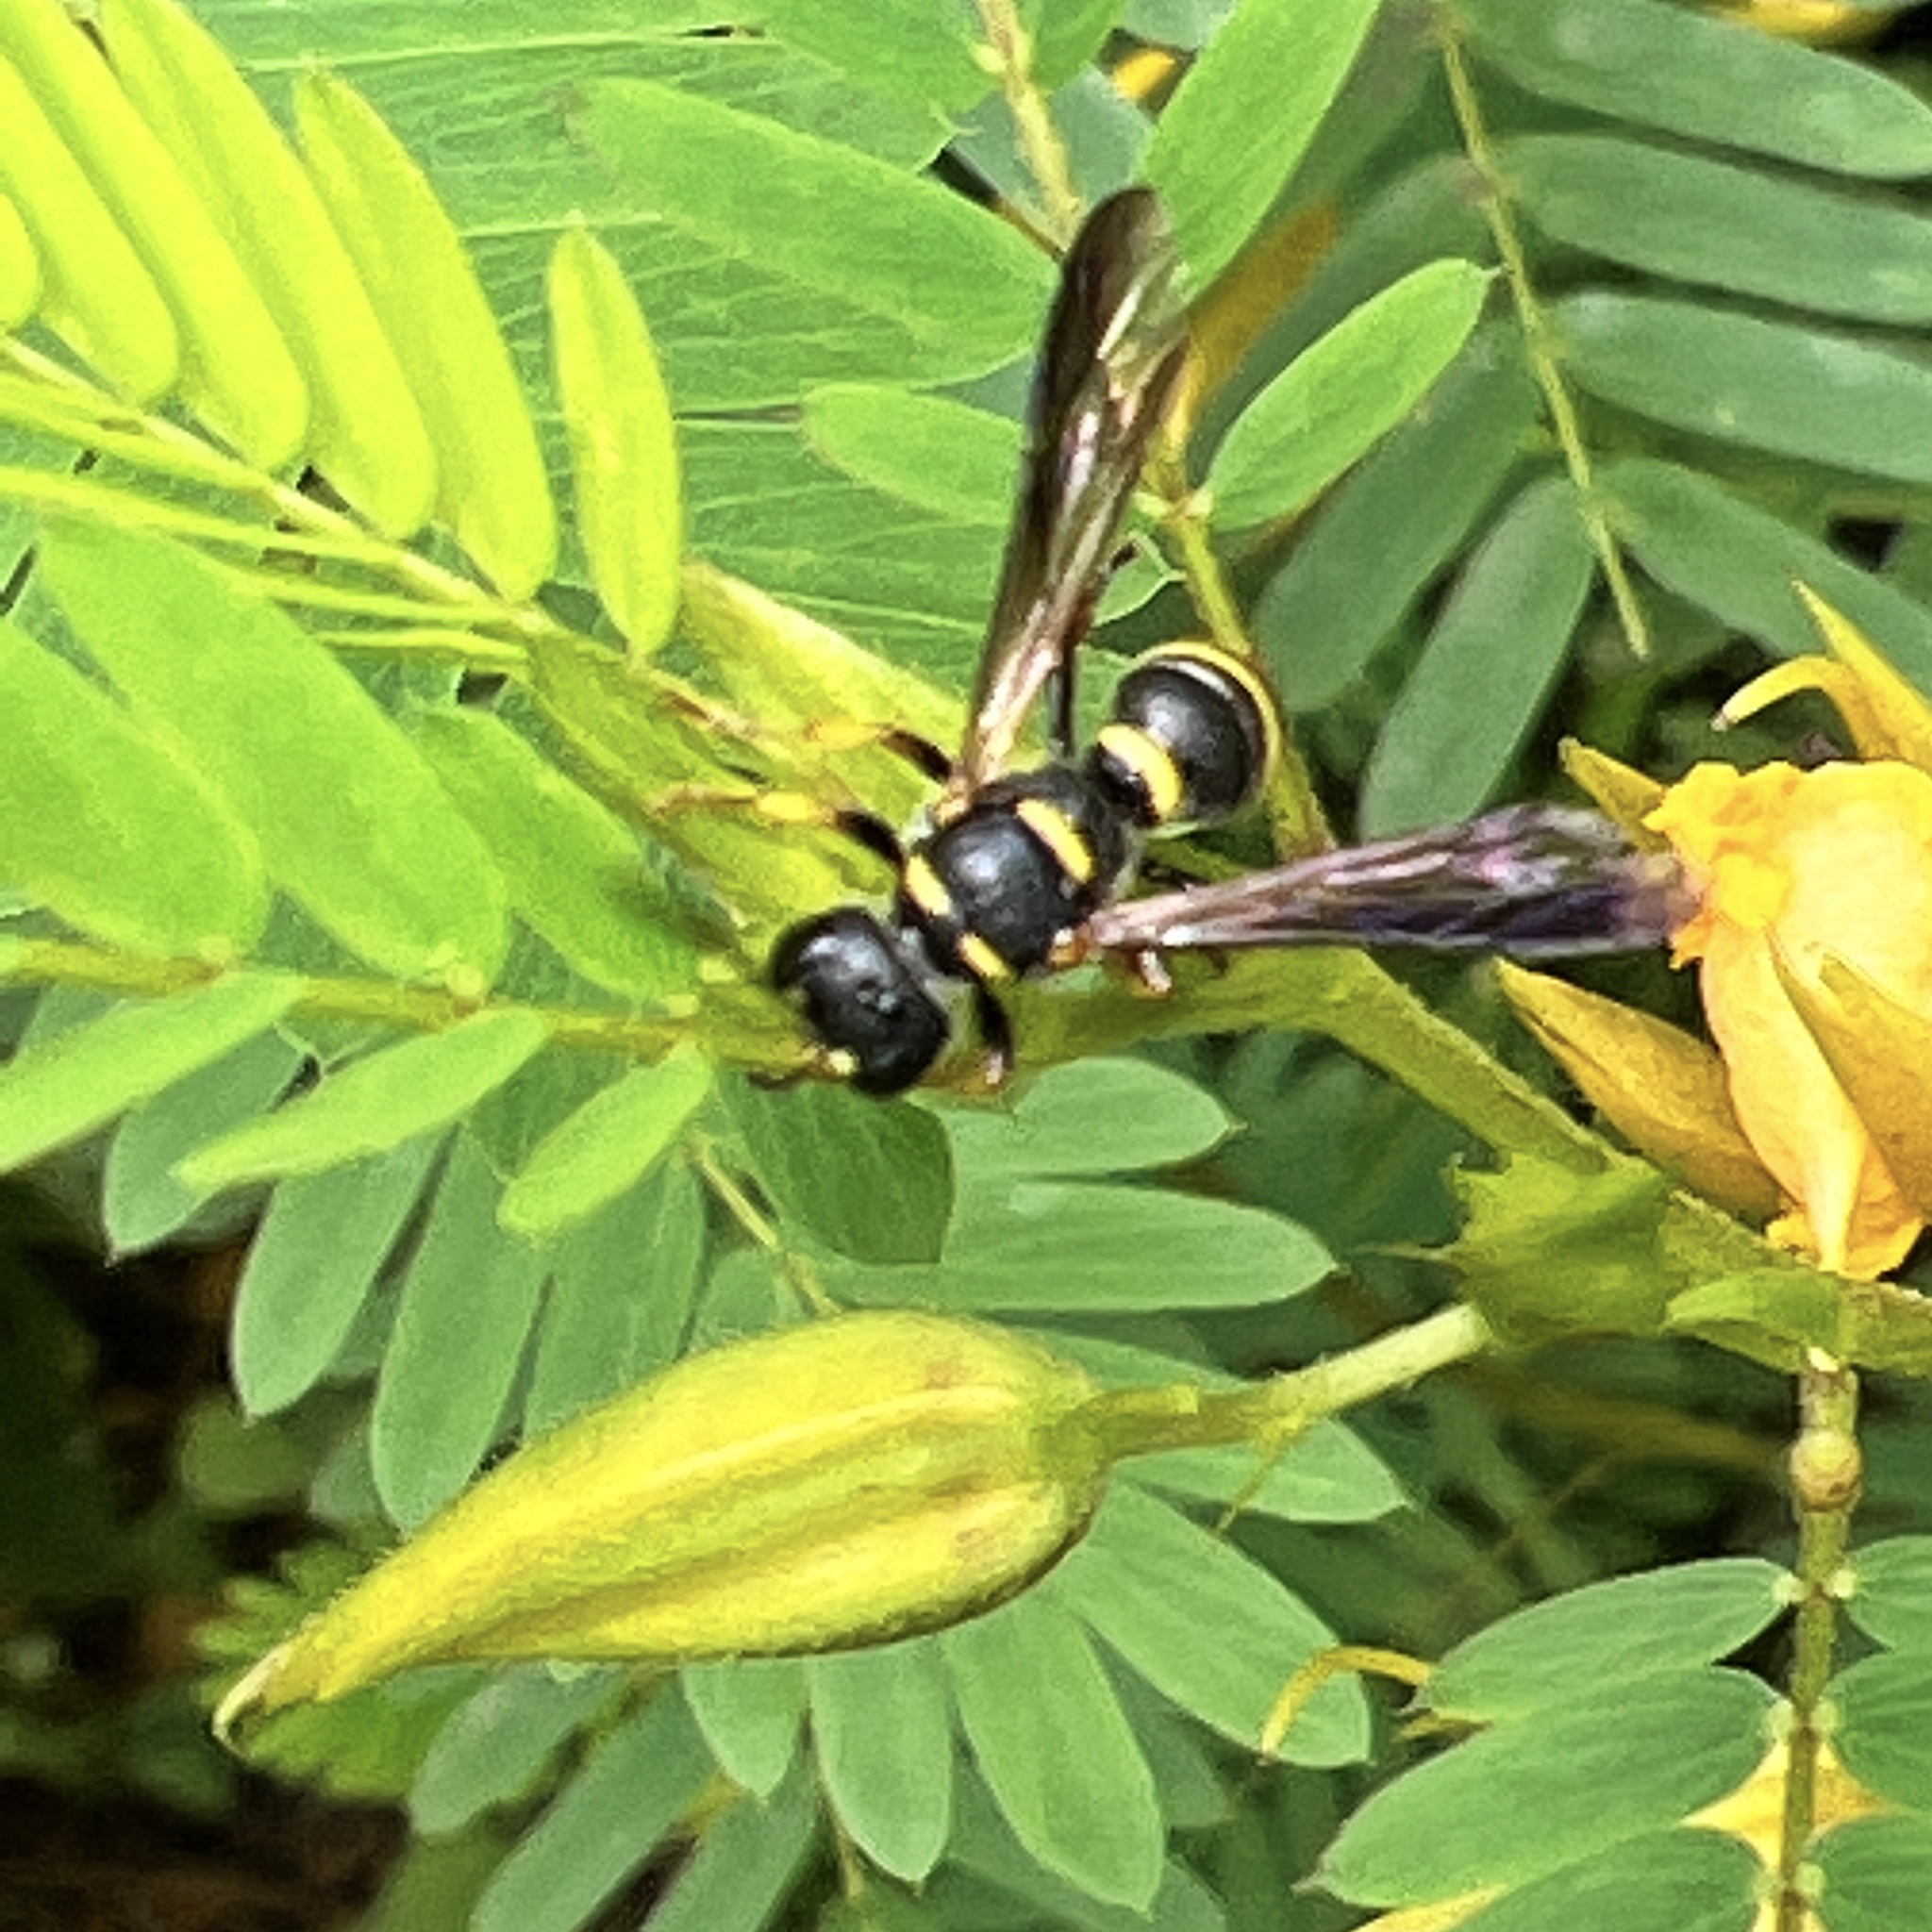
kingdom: Animalia
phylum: Arthropoda
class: Insecta
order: Hymenoptera
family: Crabronidae
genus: Cerceris
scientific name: Cerceris insolita
